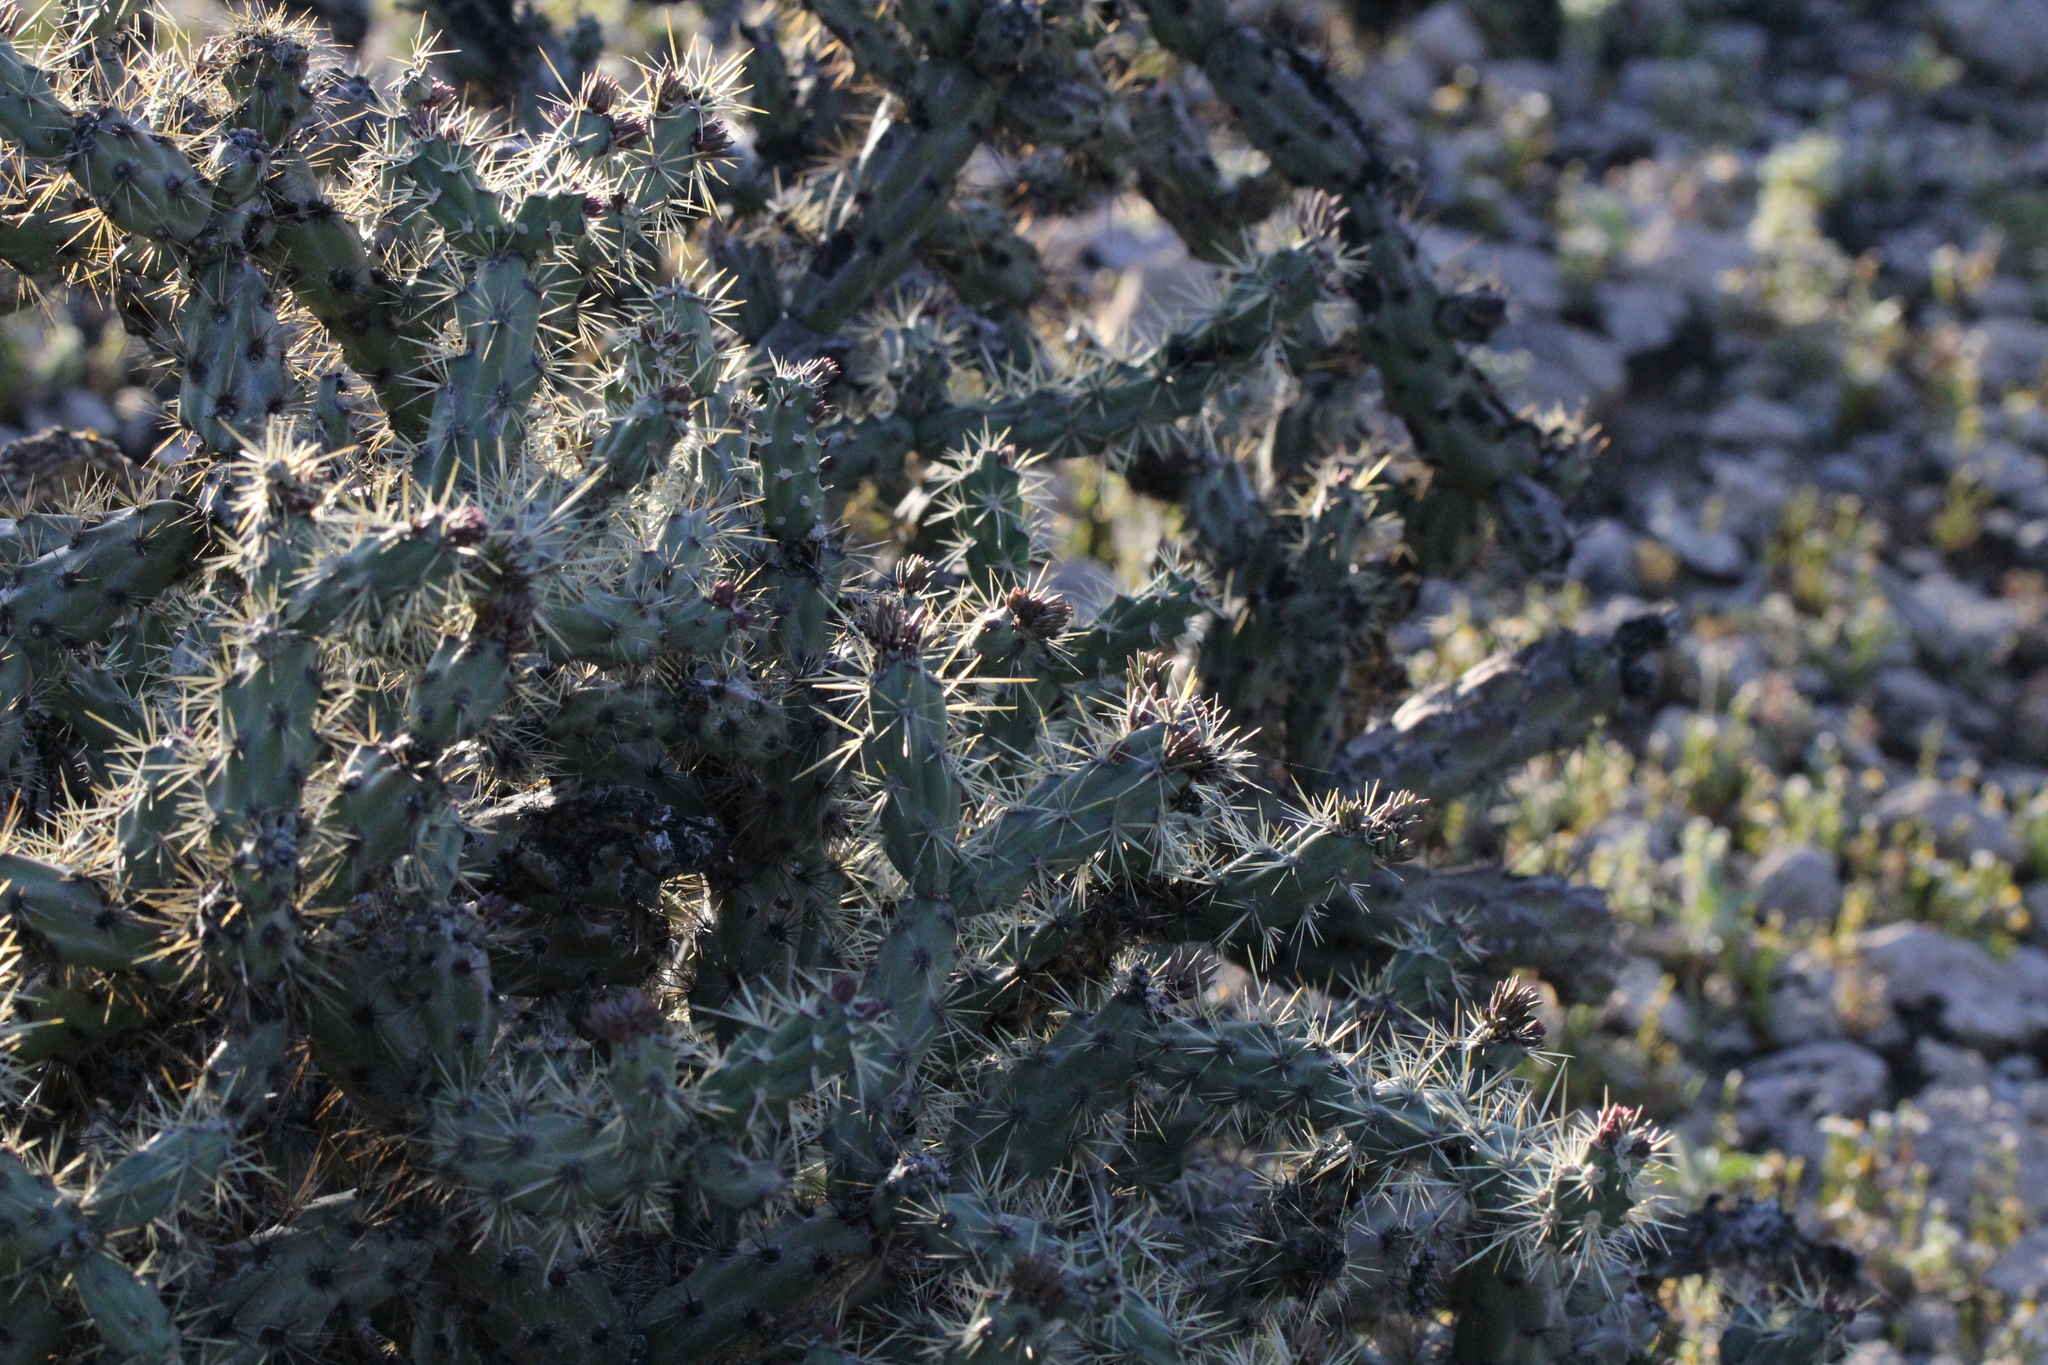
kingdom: Plantae
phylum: Tracheophyta
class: Magnoliopsida
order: Caryophyllales
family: Cactaceae
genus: Cylindropuntia
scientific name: Cylindropuntia acanthocarpa
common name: Buckhorn cholla
